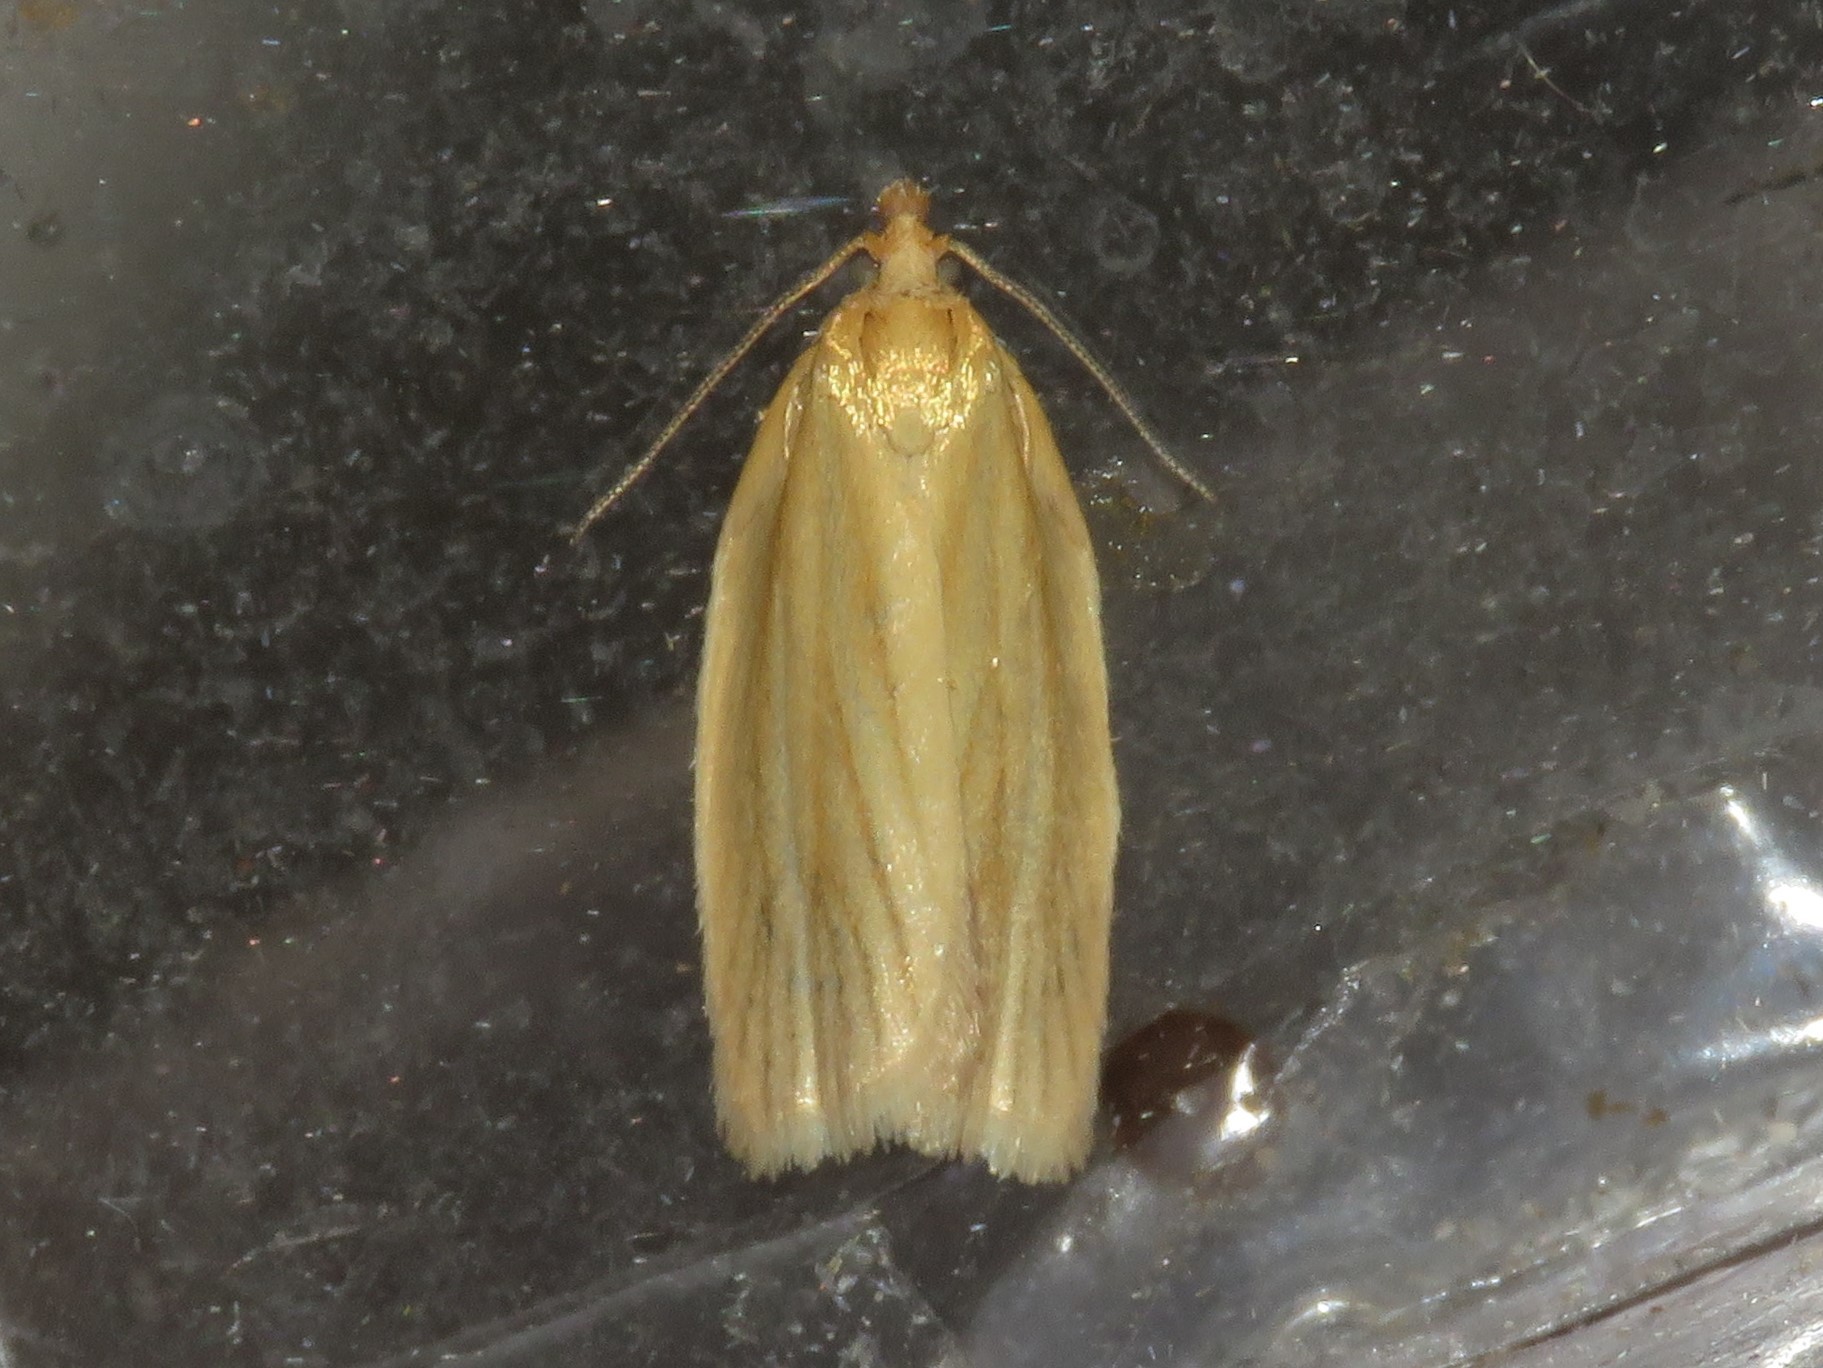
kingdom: Animalia
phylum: Arthropoda
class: Insecta
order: Lepidoptera
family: Tortricidae
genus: Clepsis
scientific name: Clepsis clemensiana
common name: Clemens' clepsis moth
